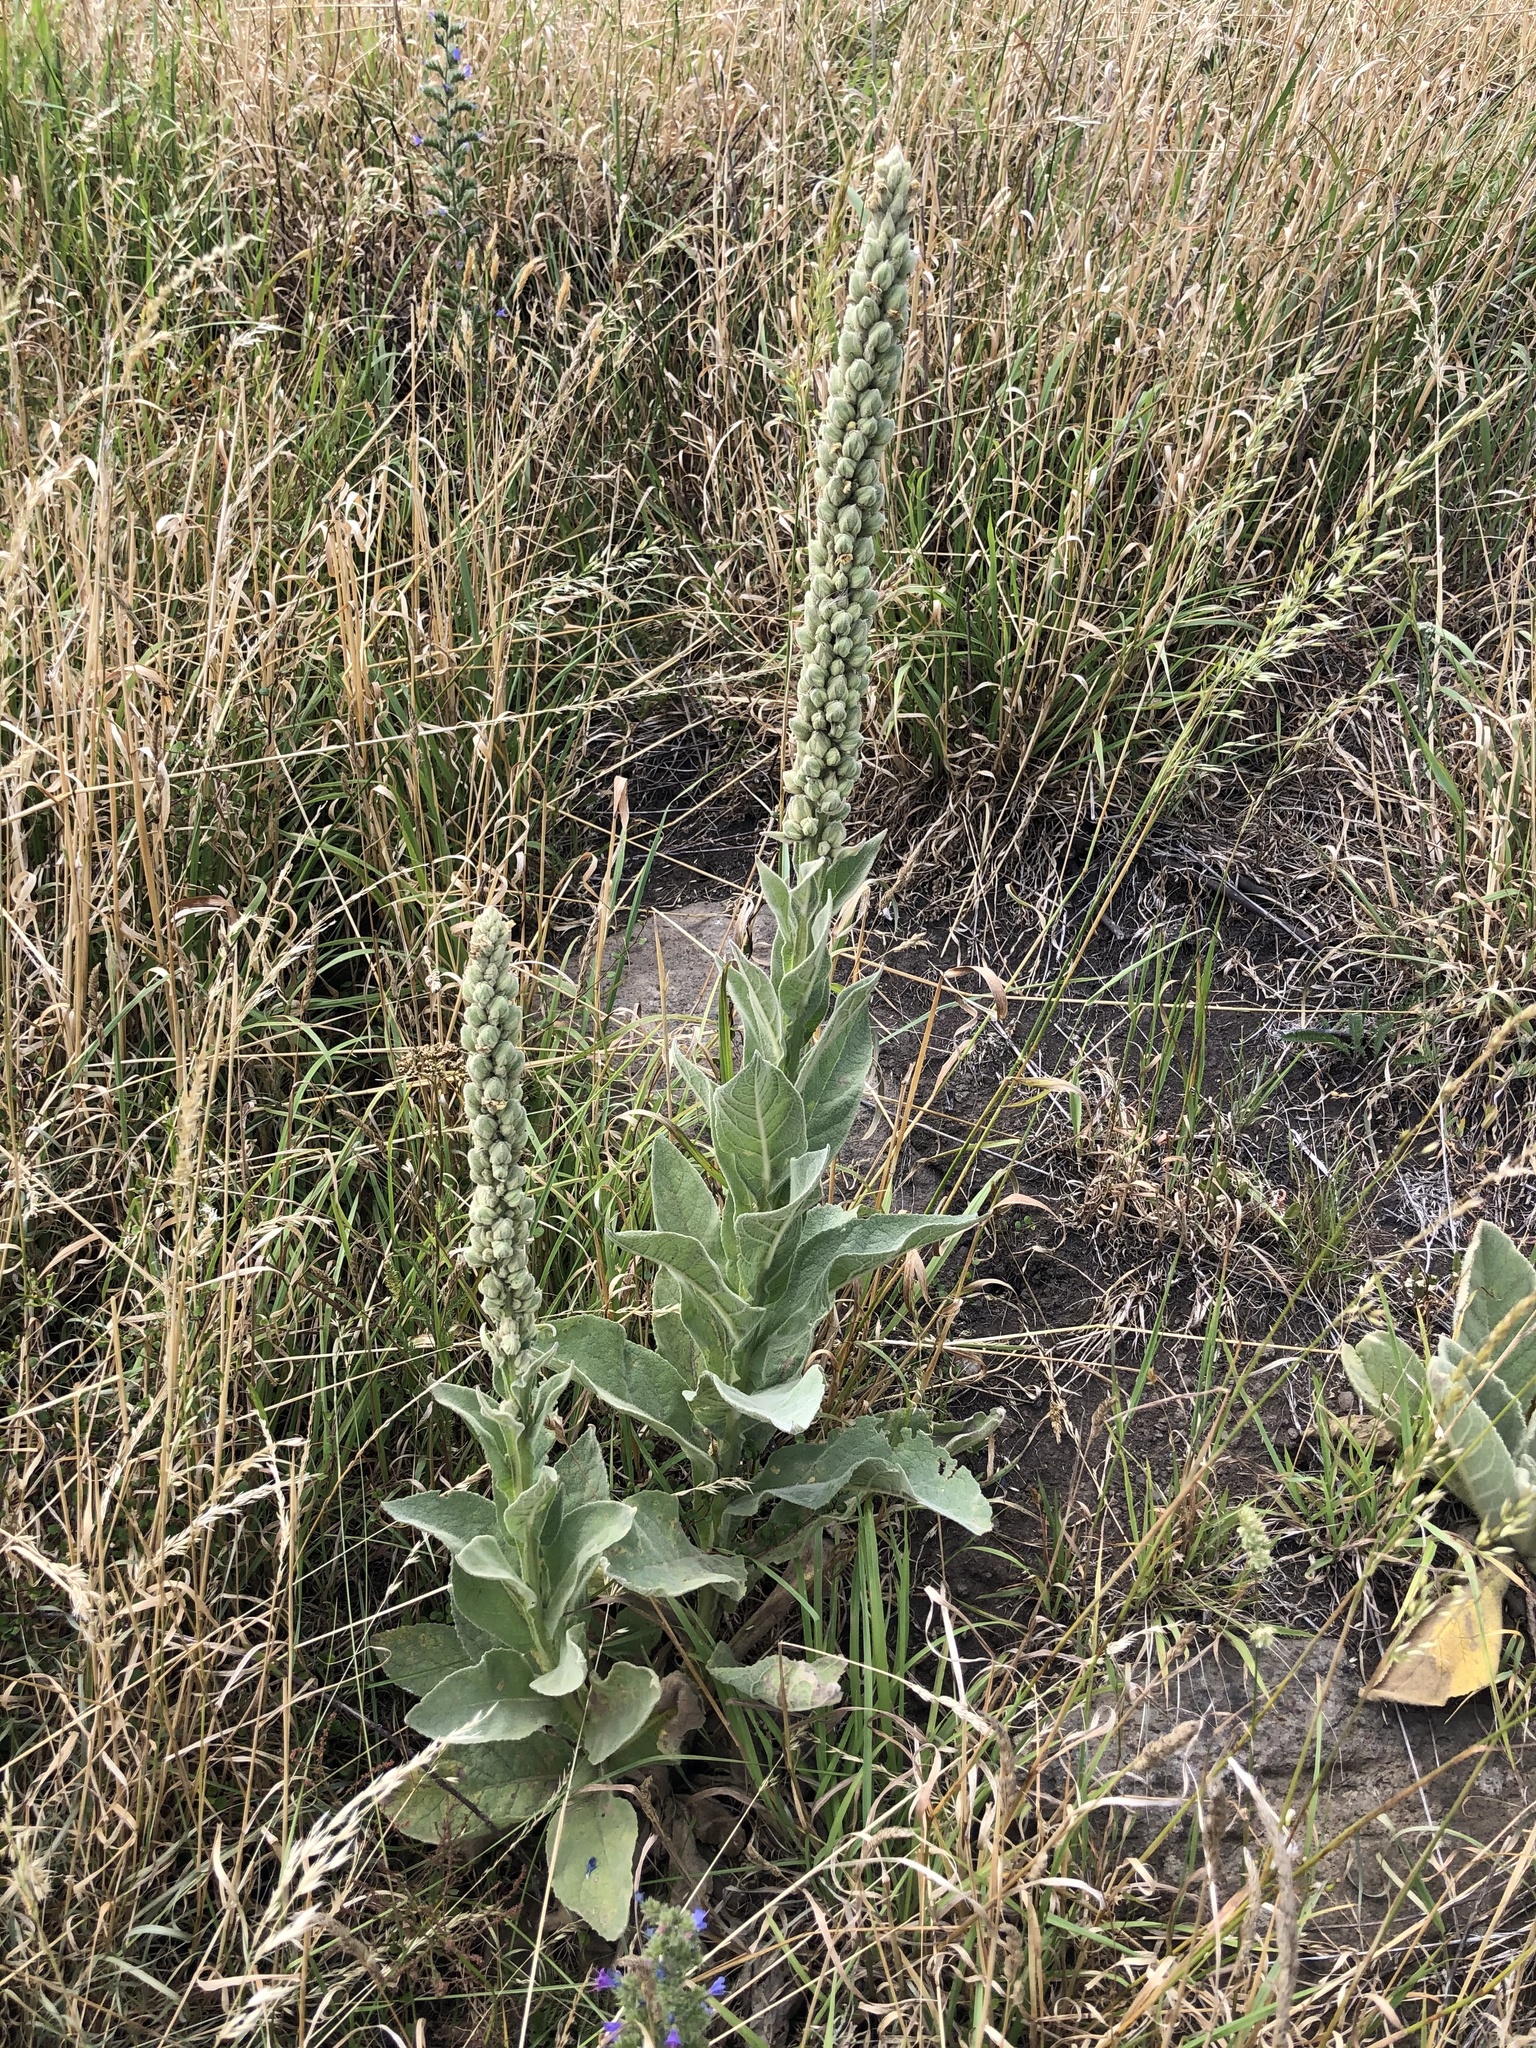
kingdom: Plantae
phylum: Tracheophyta
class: Magnoliopsida
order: Lamiales
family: Scrophulariaceae
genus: Verbascum
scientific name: Verbascum thapsus
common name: Common mullein
